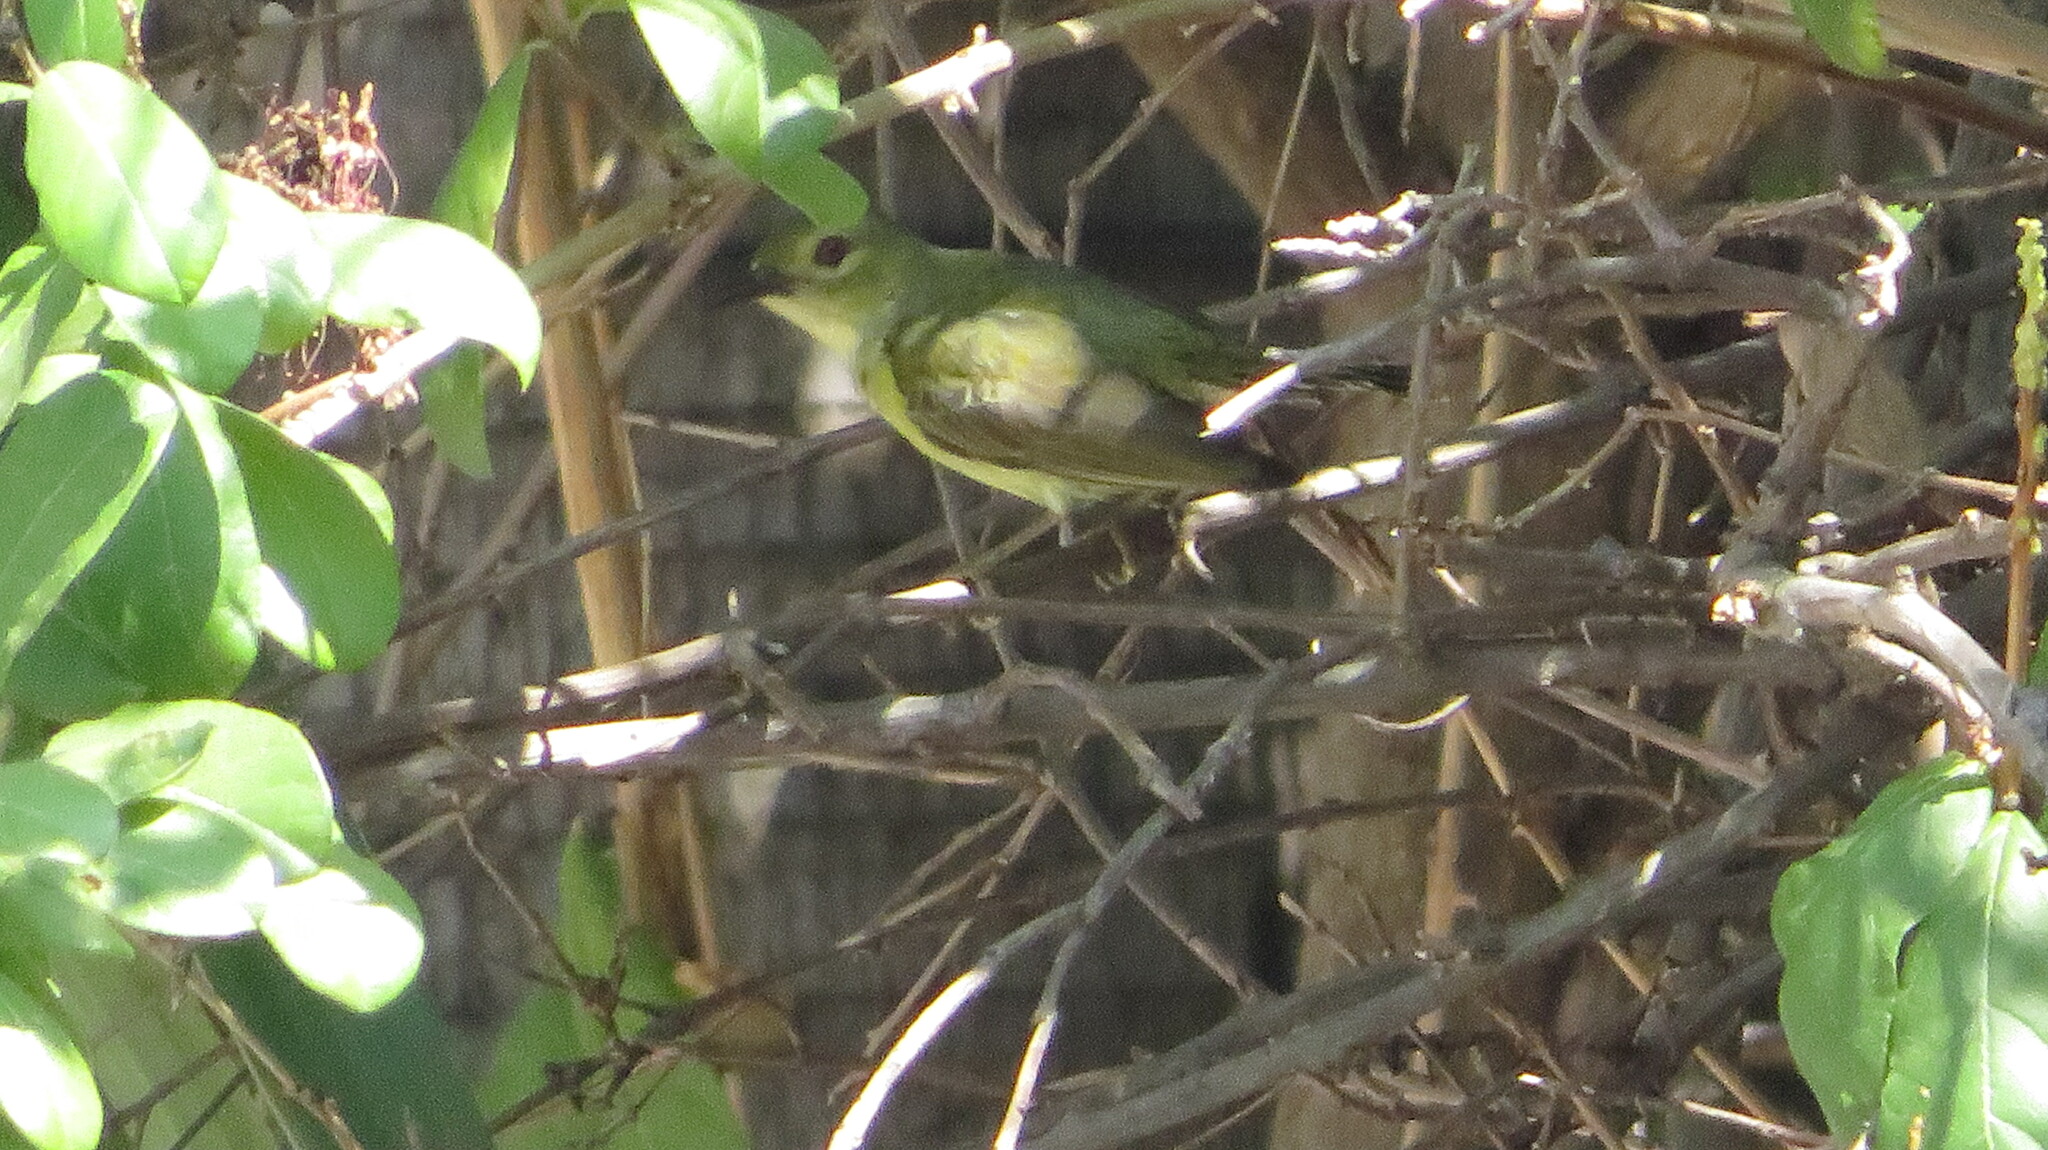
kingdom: Animalia
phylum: Chordata
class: Aves
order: Passeriformes
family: Nectariniidae
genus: Anthreptes
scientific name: Anthreptes malacensis
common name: Brown-throated sunbird
